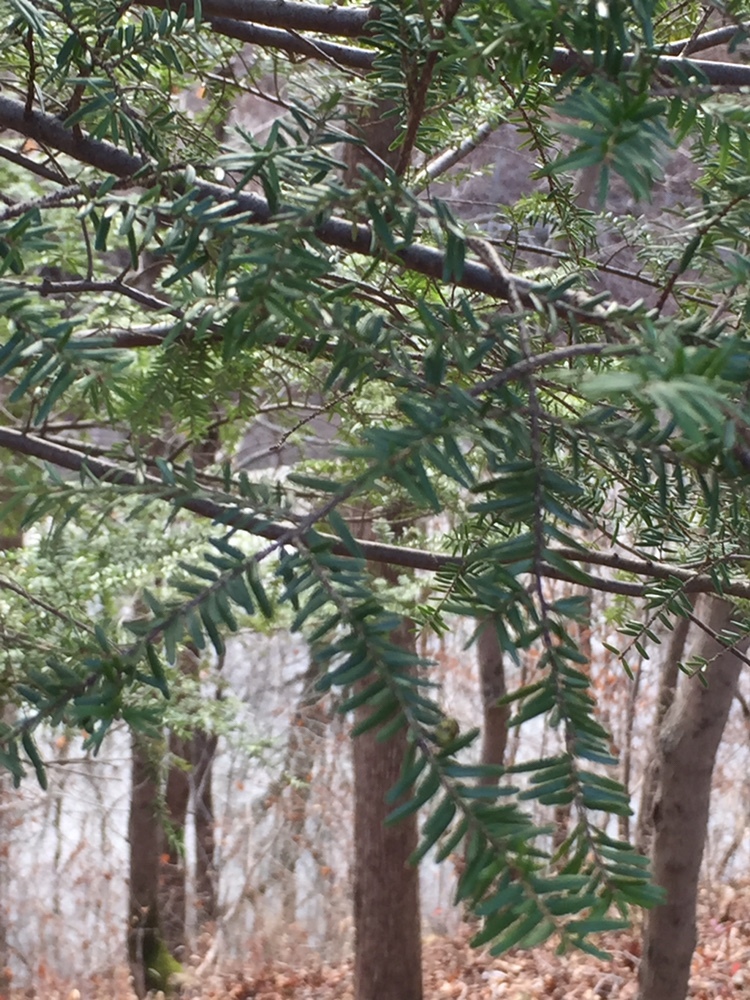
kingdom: Plantae
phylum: Tracheophyta
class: Pinopsida
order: Pinales
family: Pinaceae
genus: Tsuga
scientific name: Tsuga canadensis
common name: Eastern hemlock
